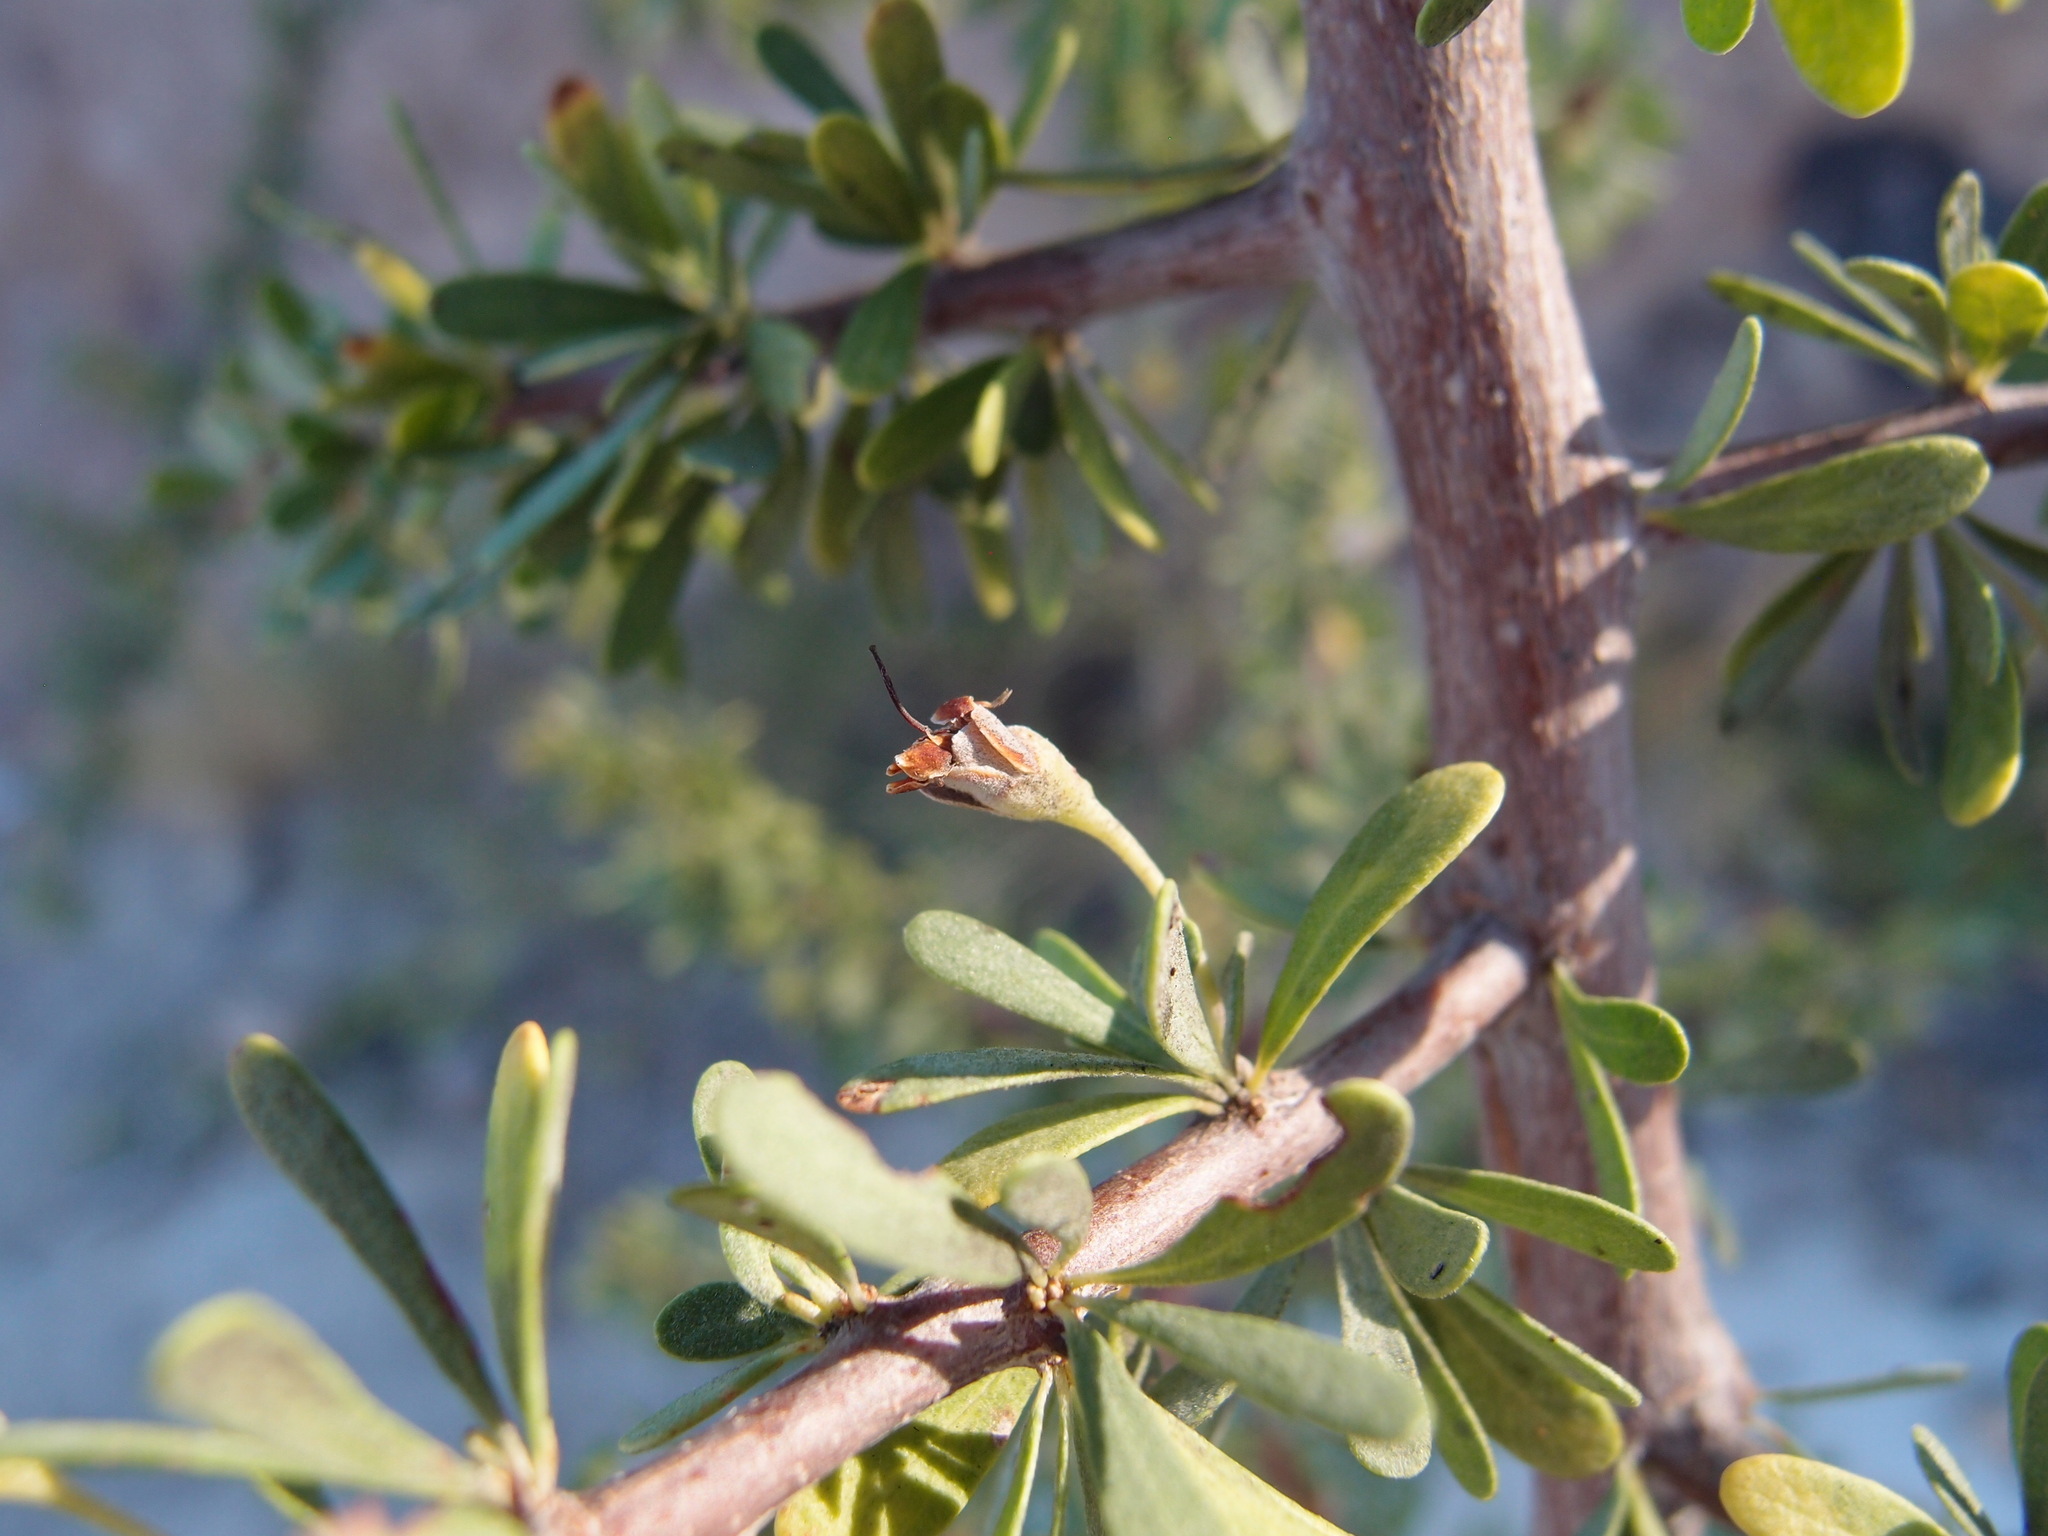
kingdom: Plantae
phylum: Tracheophyta
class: Magnoliopsida
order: Ericales
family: Sapotaceae
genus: Sideroxylon
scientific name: Sideroxylon occidentale
